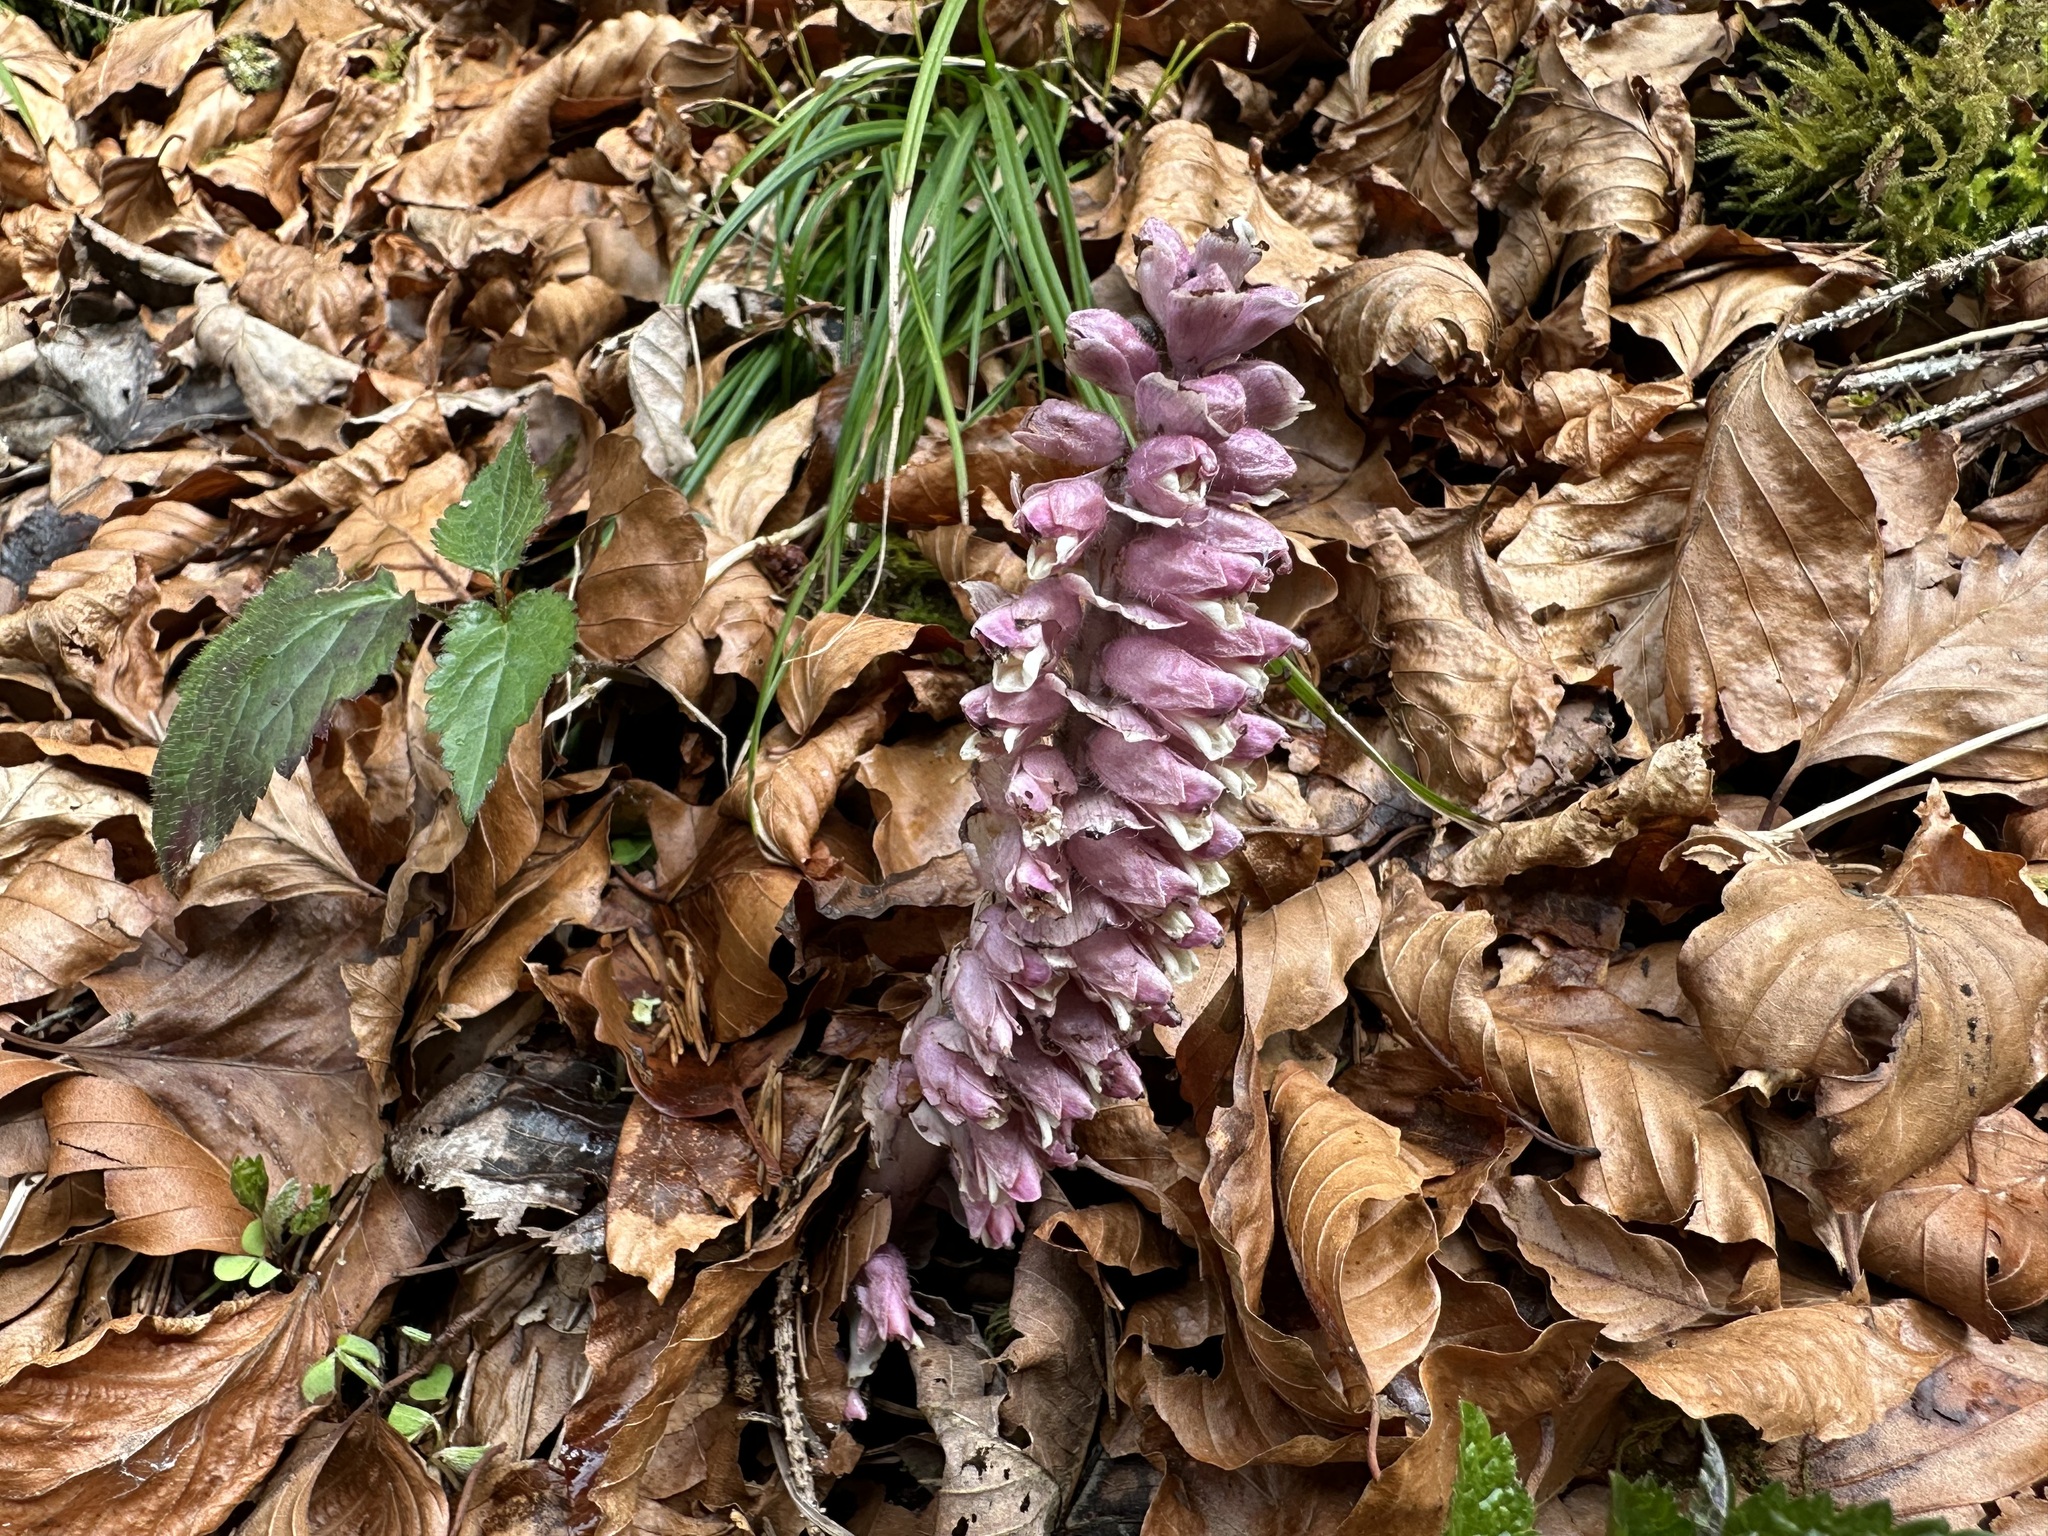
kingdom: Plantae
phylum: Tracheophyta
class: Magnoliopsida
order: Lamiales
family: Orobanchaceae
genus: Lathraea
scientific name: Lathraea squamaria
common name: Toothwort
